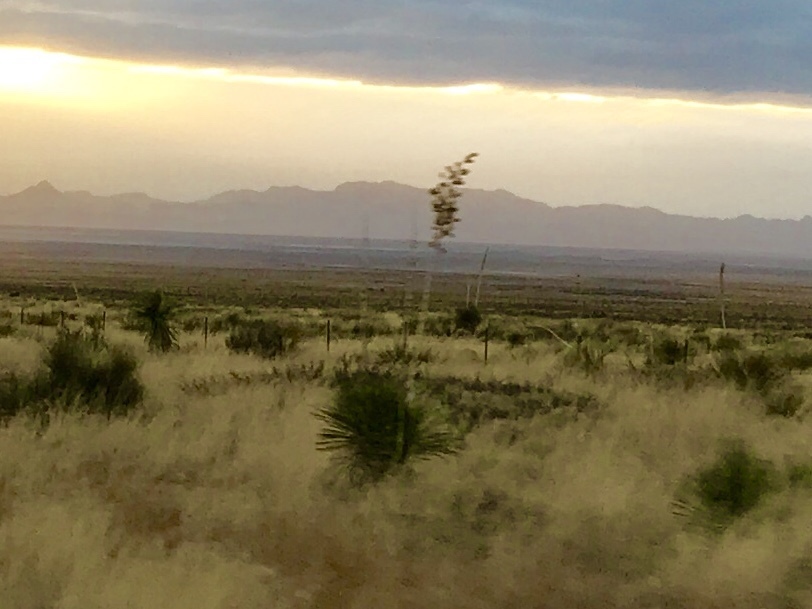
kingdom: Plantae
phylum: Tracheophyta
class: Liliopsida
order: Asparagales
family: Asparagaceae
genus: Yucca
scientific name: Yucca elata
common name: Palmella
